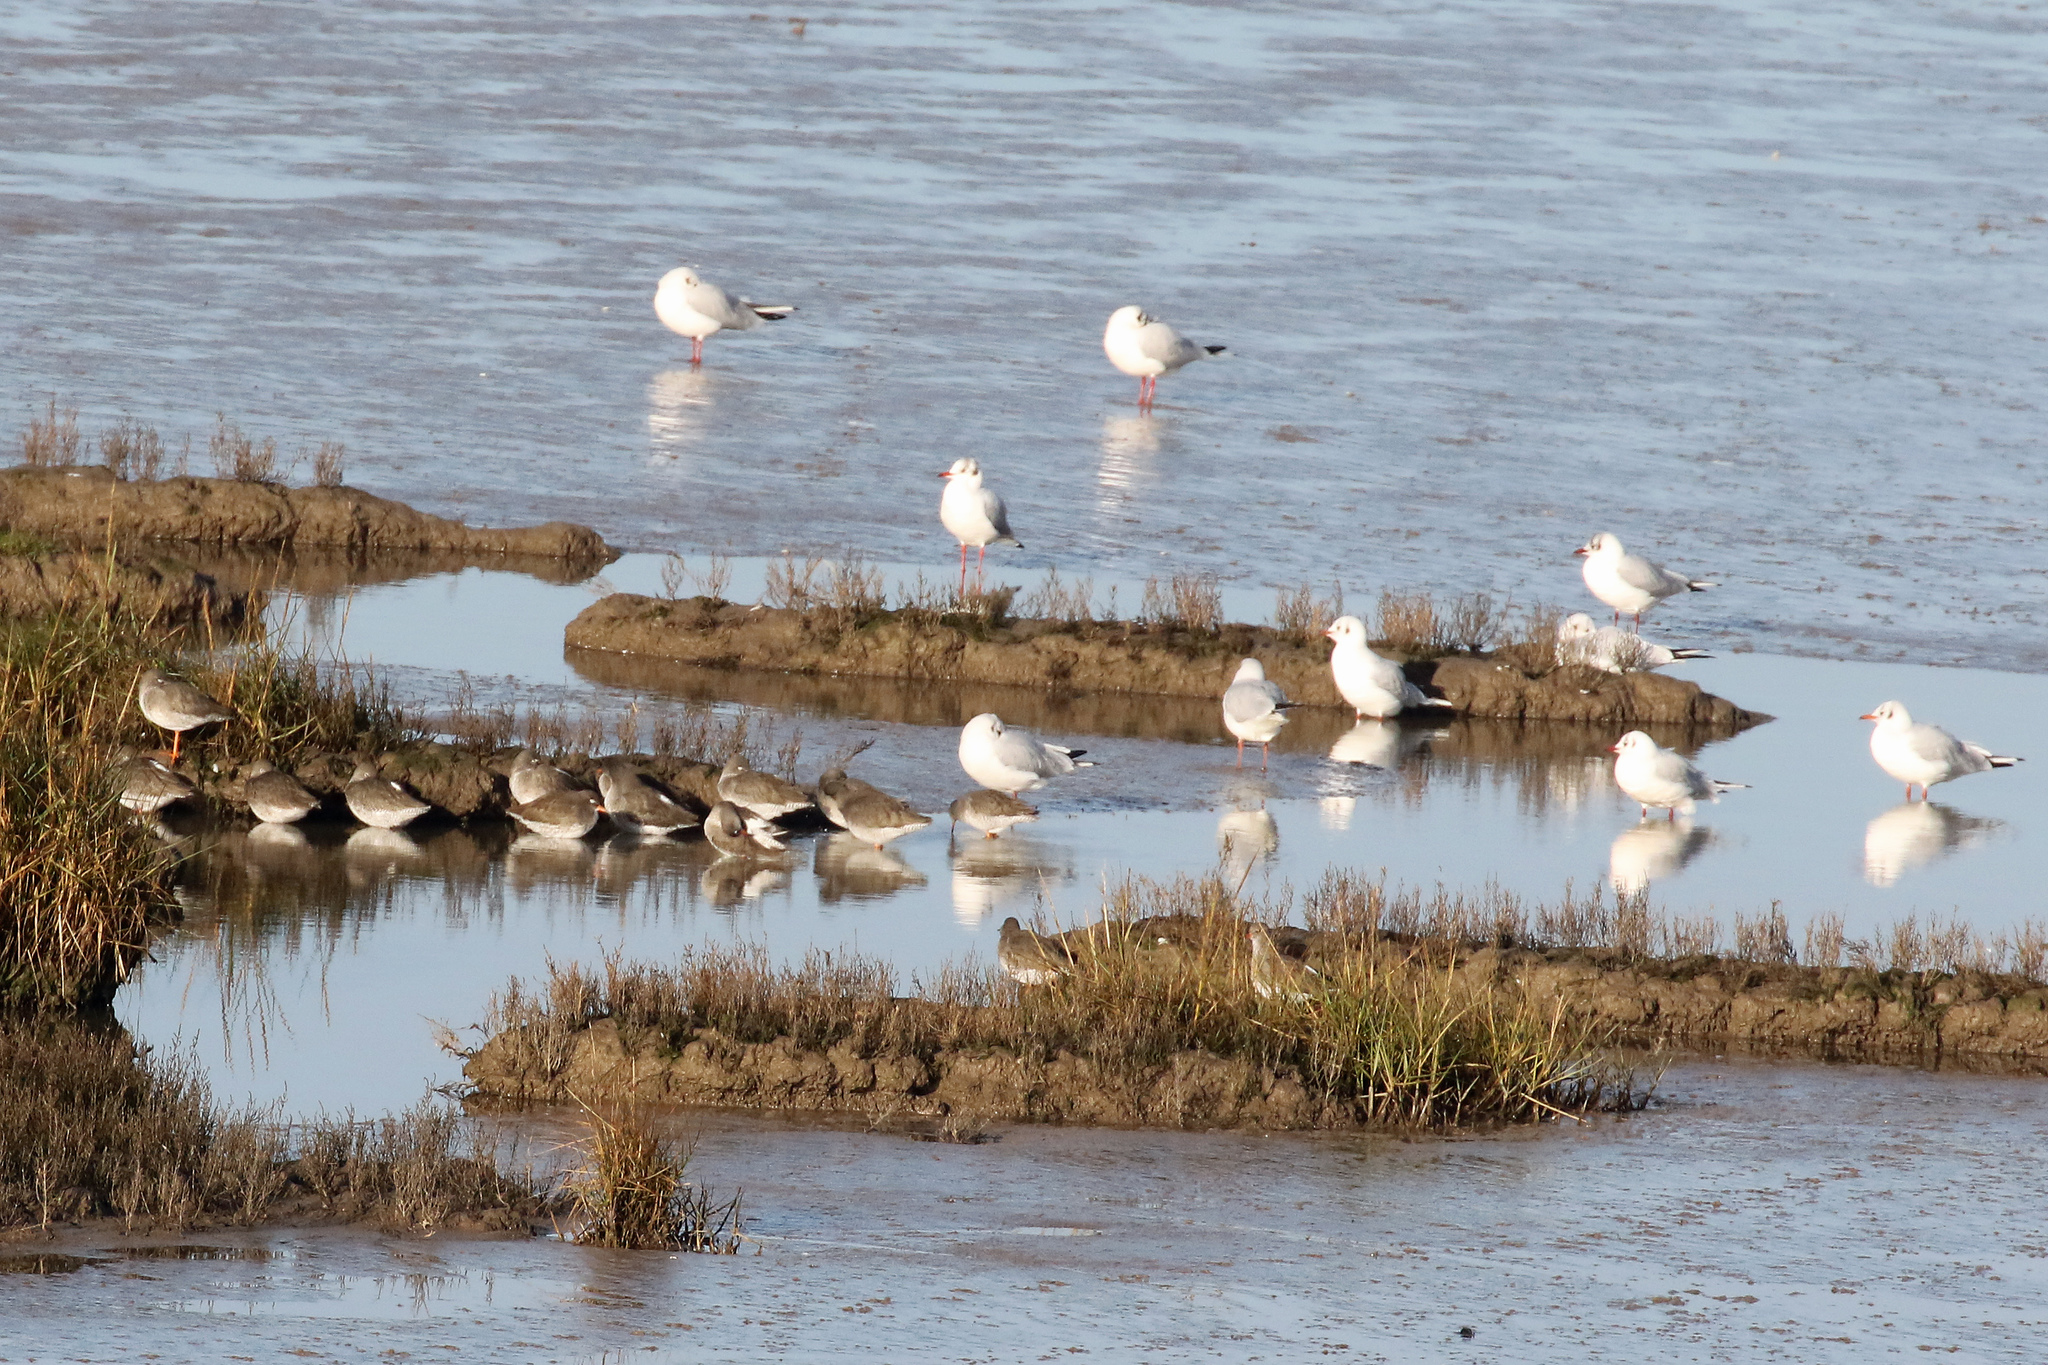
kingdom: Animalia
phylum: Chordata
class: Aves
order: Charadriiformes
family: Laridae
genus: Chroicocephalus
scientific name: Chroicocephalus ridibundus
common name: Black-headed gull
